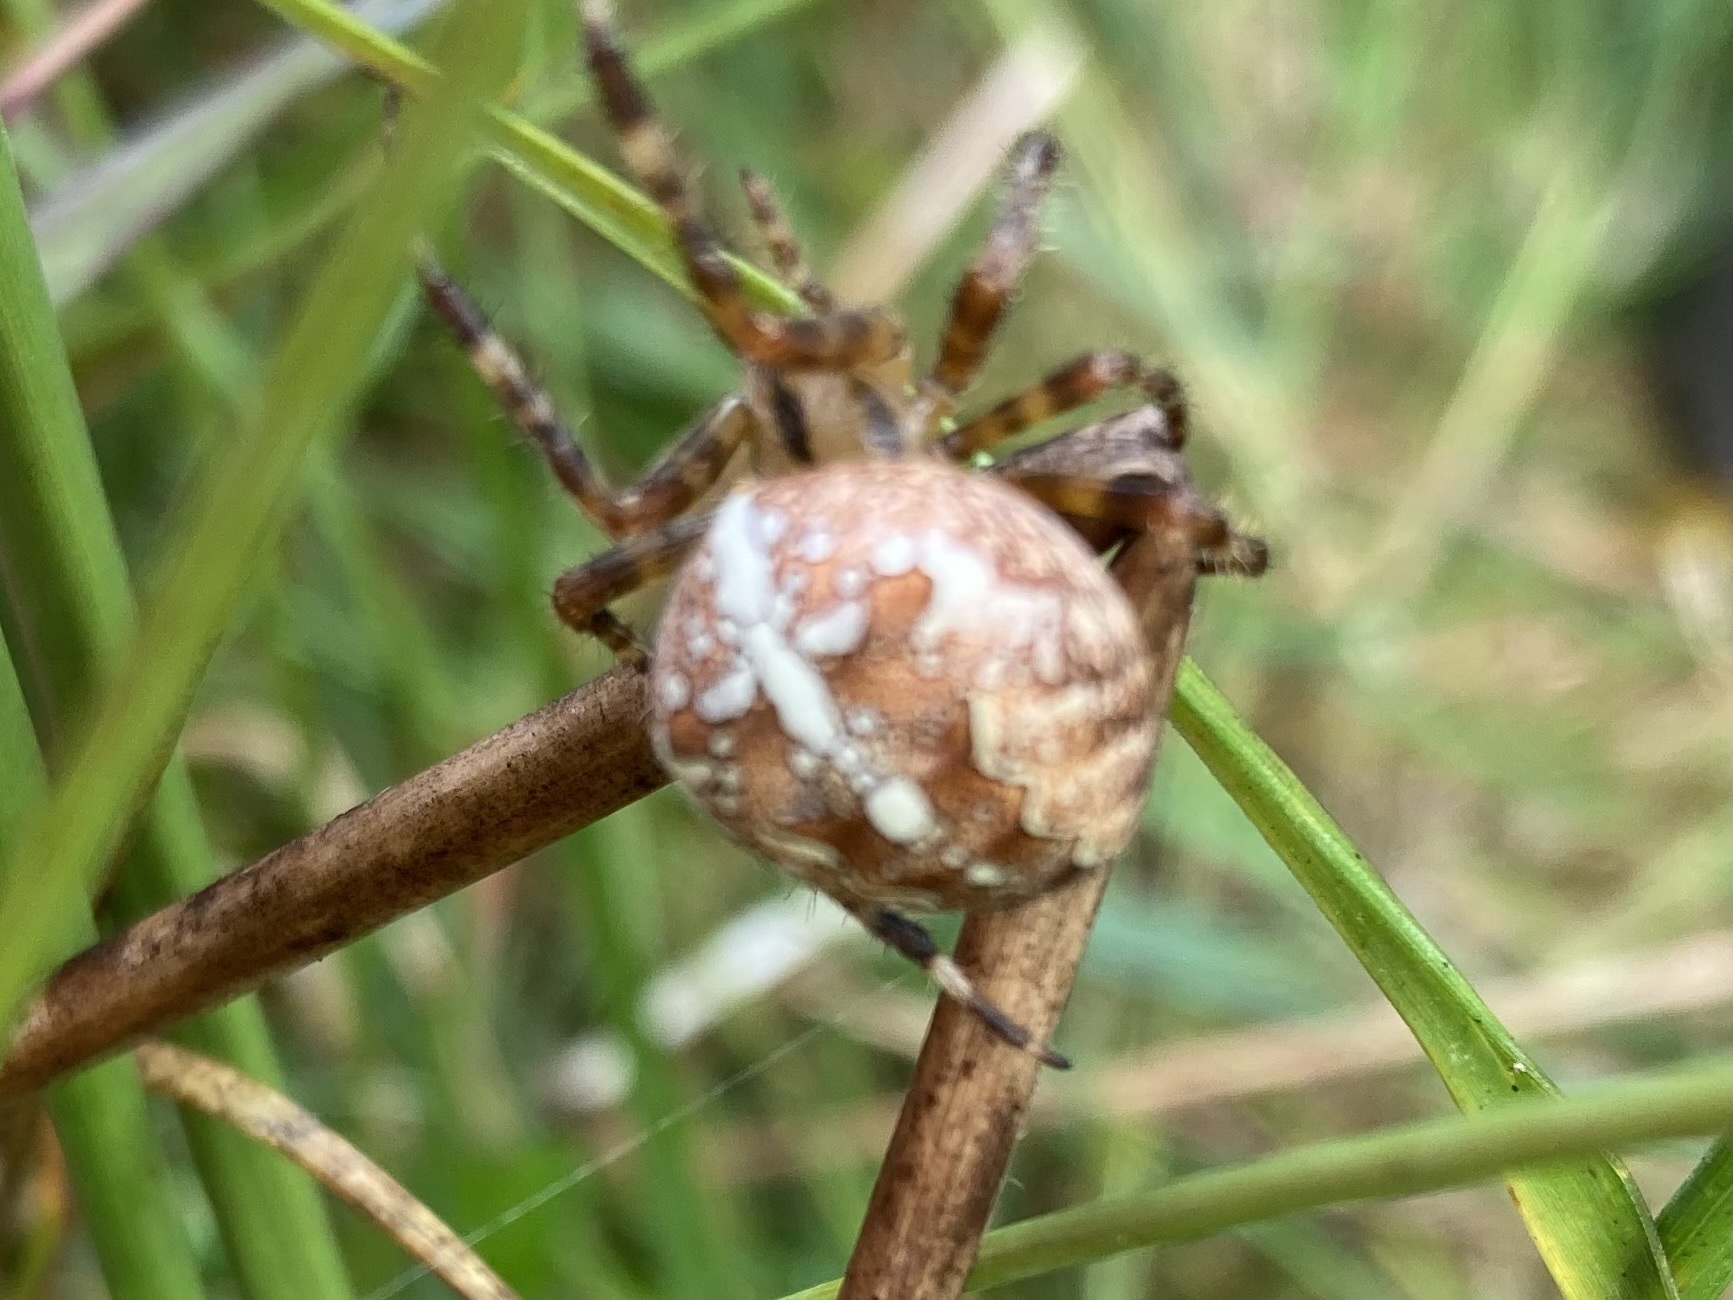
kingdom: Animalia
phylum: Arthropoda
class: Arachnida
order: Araneae
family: Araneidae
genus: Araneus
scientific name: Araneus diadematus
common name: Cross orbweaver
